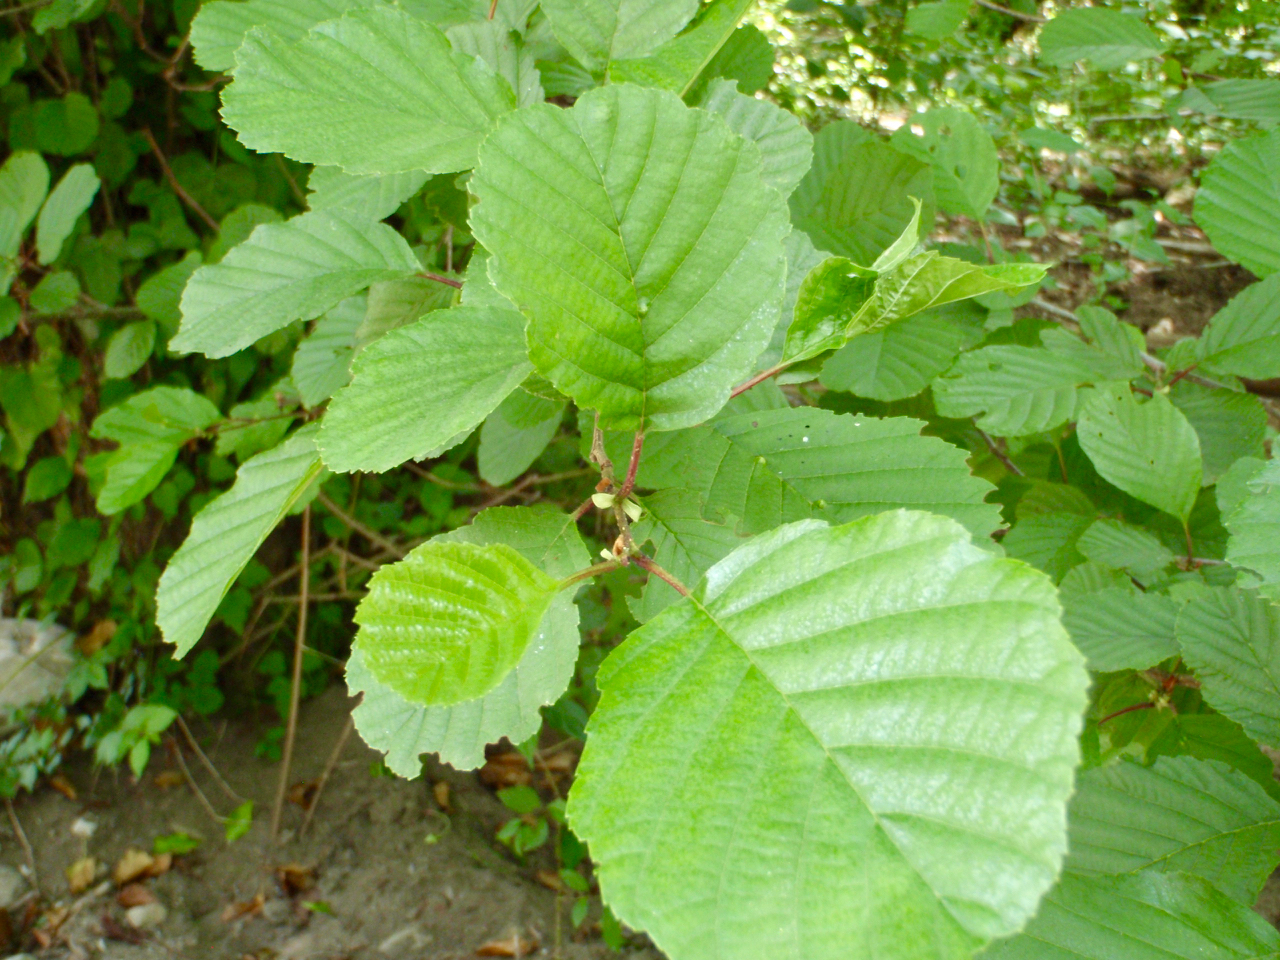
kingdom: Plantae
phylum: Tracheophyta
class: Magnoliopsida
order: Fagales
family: Betulaceae
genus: Alnus
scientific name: Alnus glutinosa
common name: Black alder
